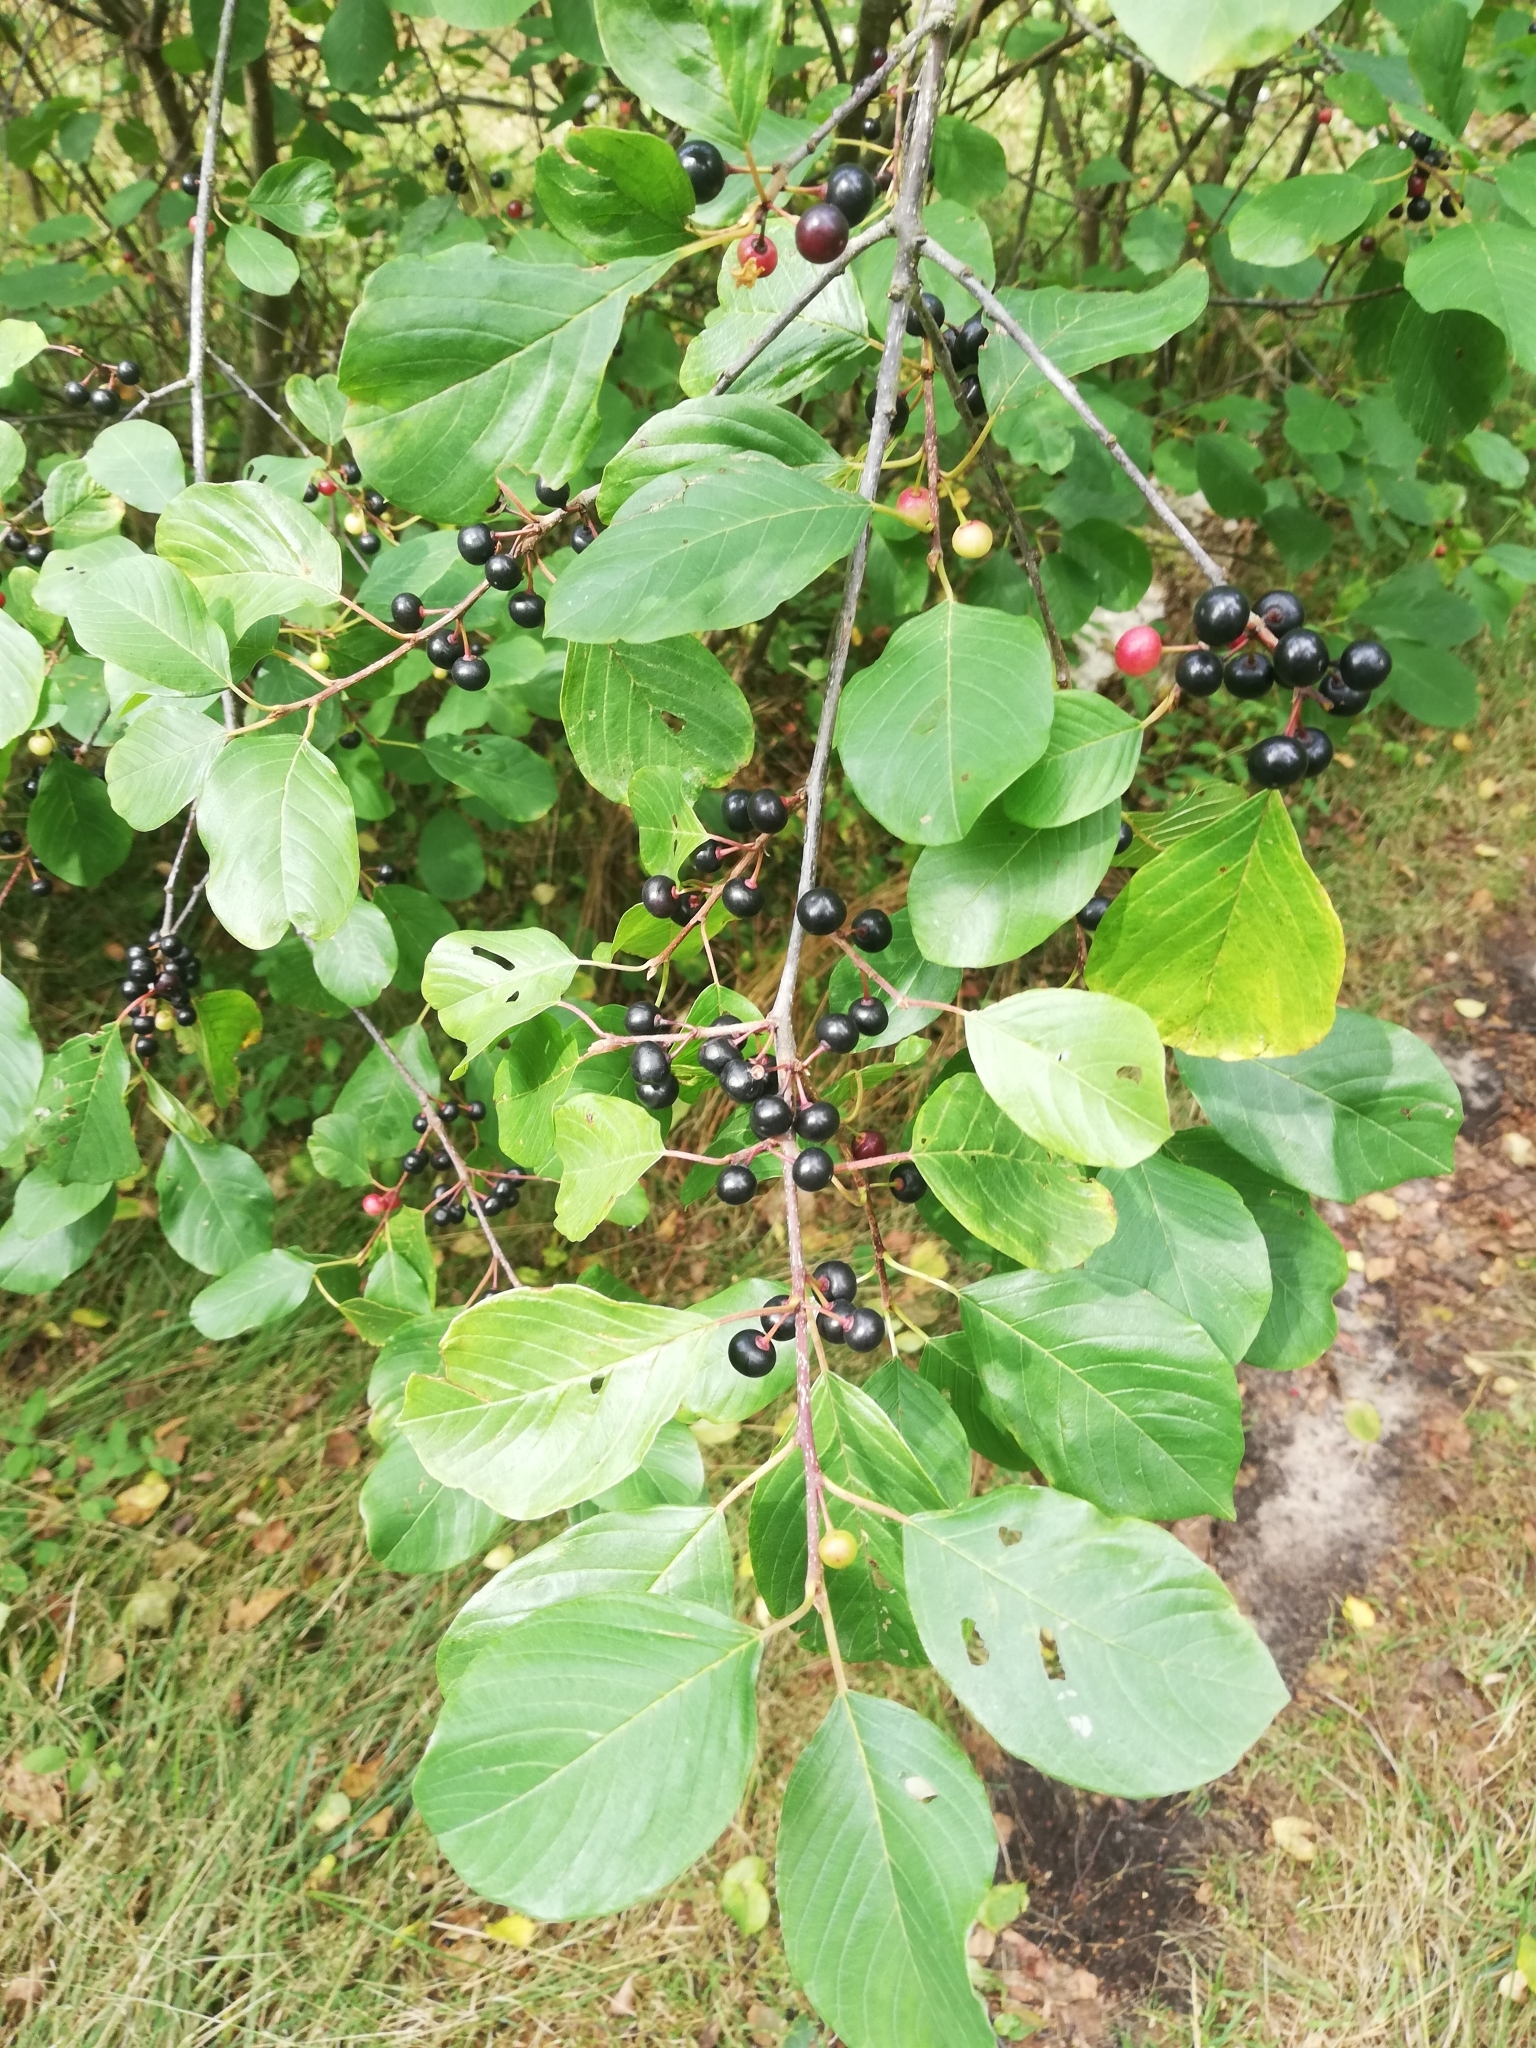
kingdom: Plantae
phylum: Tracheophyta
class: Magnoliopsida
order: Rosales
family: Rhamnaceae
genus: Frangula
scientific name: Frangula alnus
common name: Alder buckthorn
